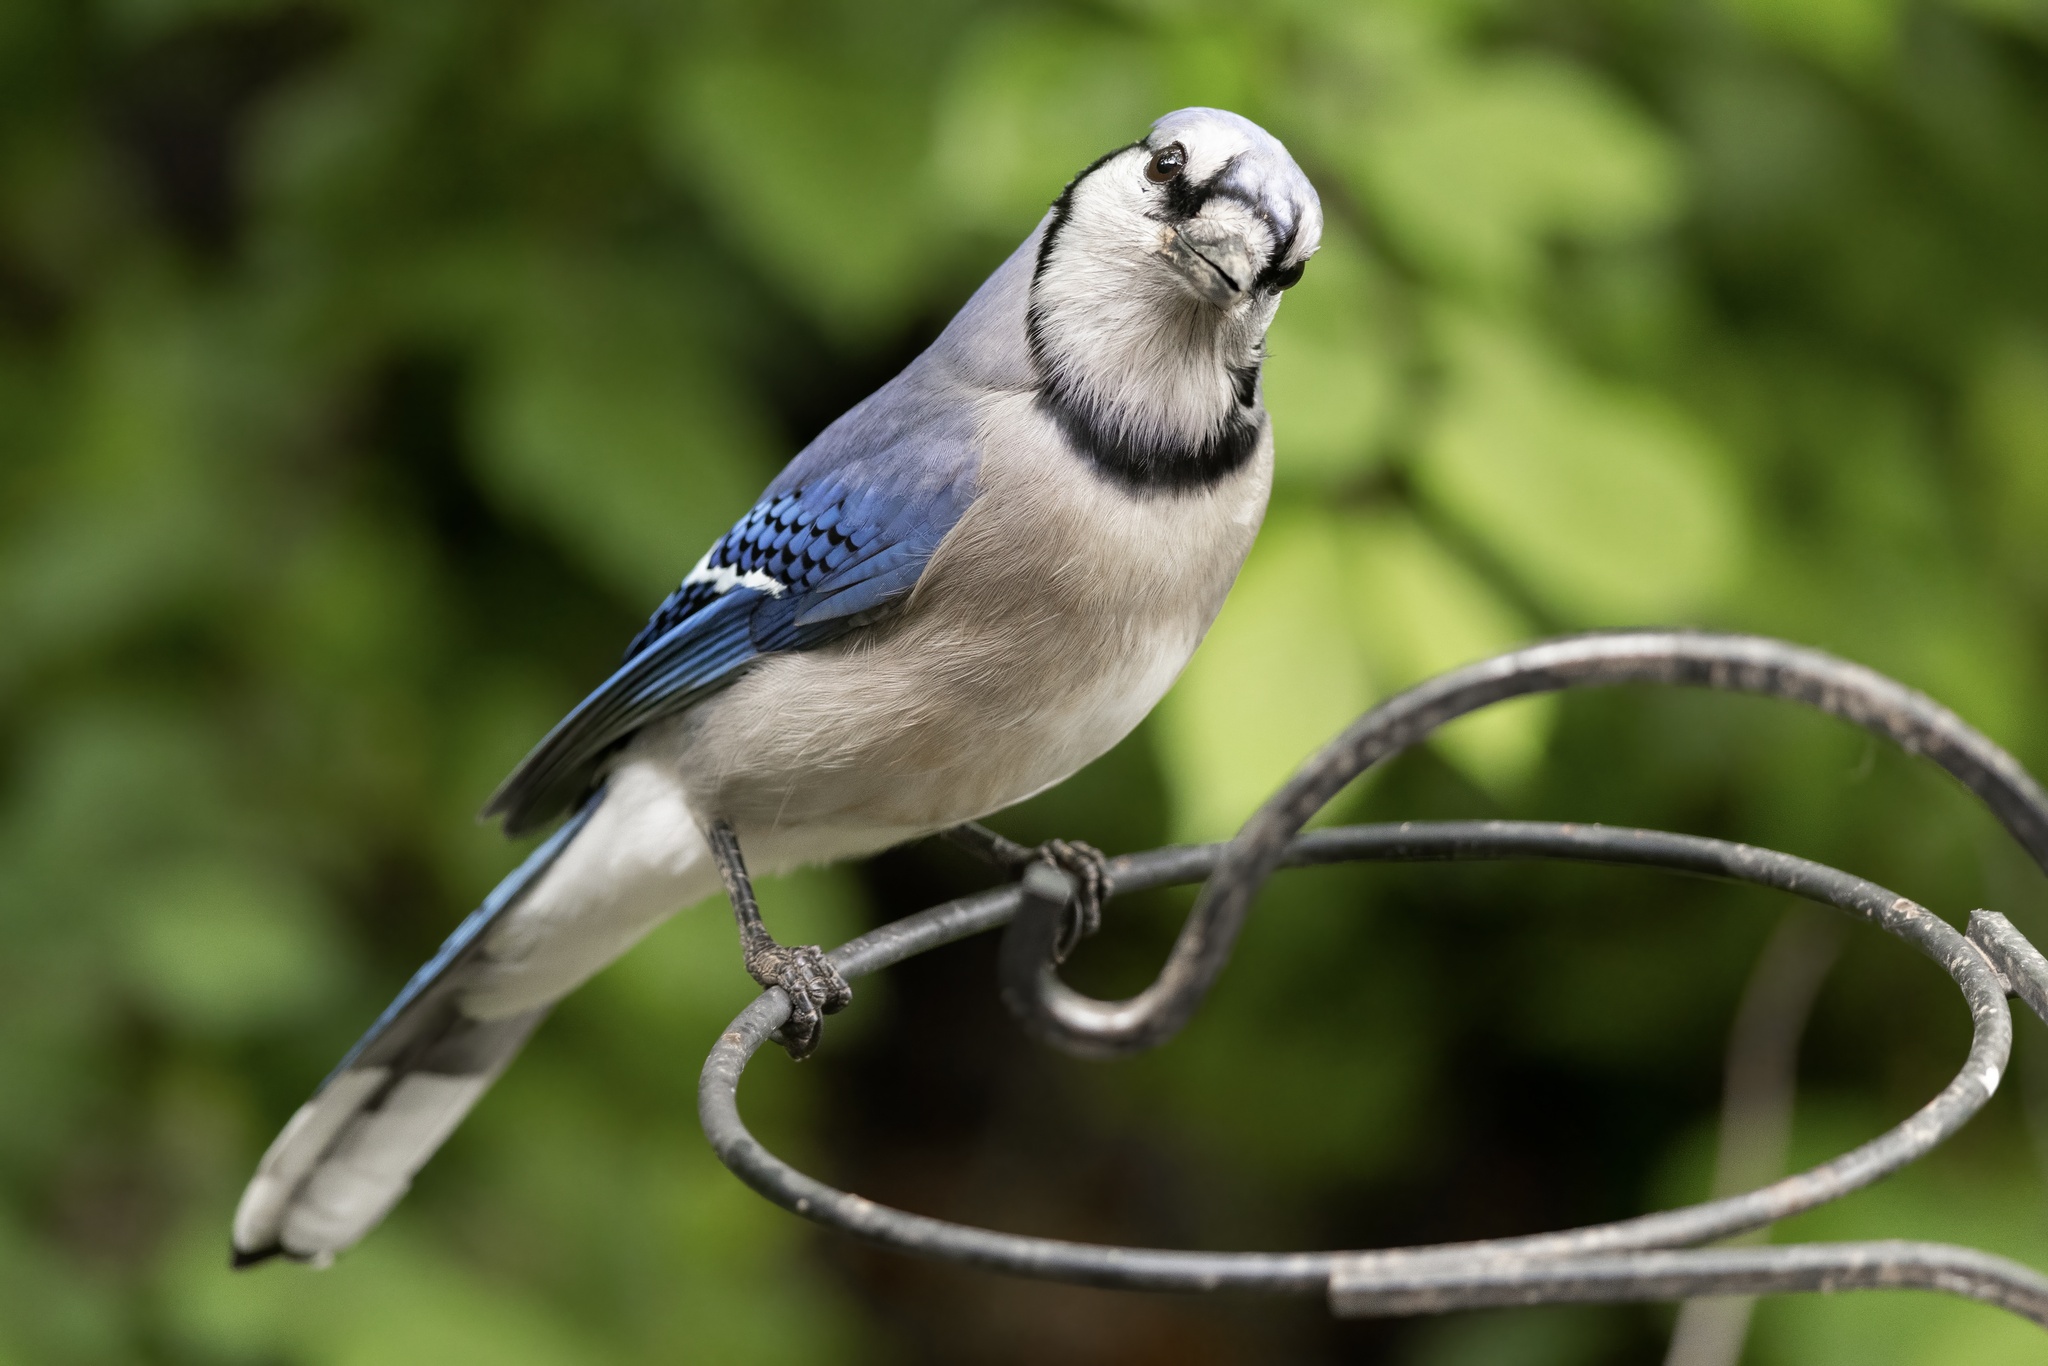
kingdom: Animalia
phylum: Chordata
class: Aves
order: Passeriformes
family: Corvidae
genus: Cyanocitta
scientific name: Cyanocitta cristata
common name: Blue jay
